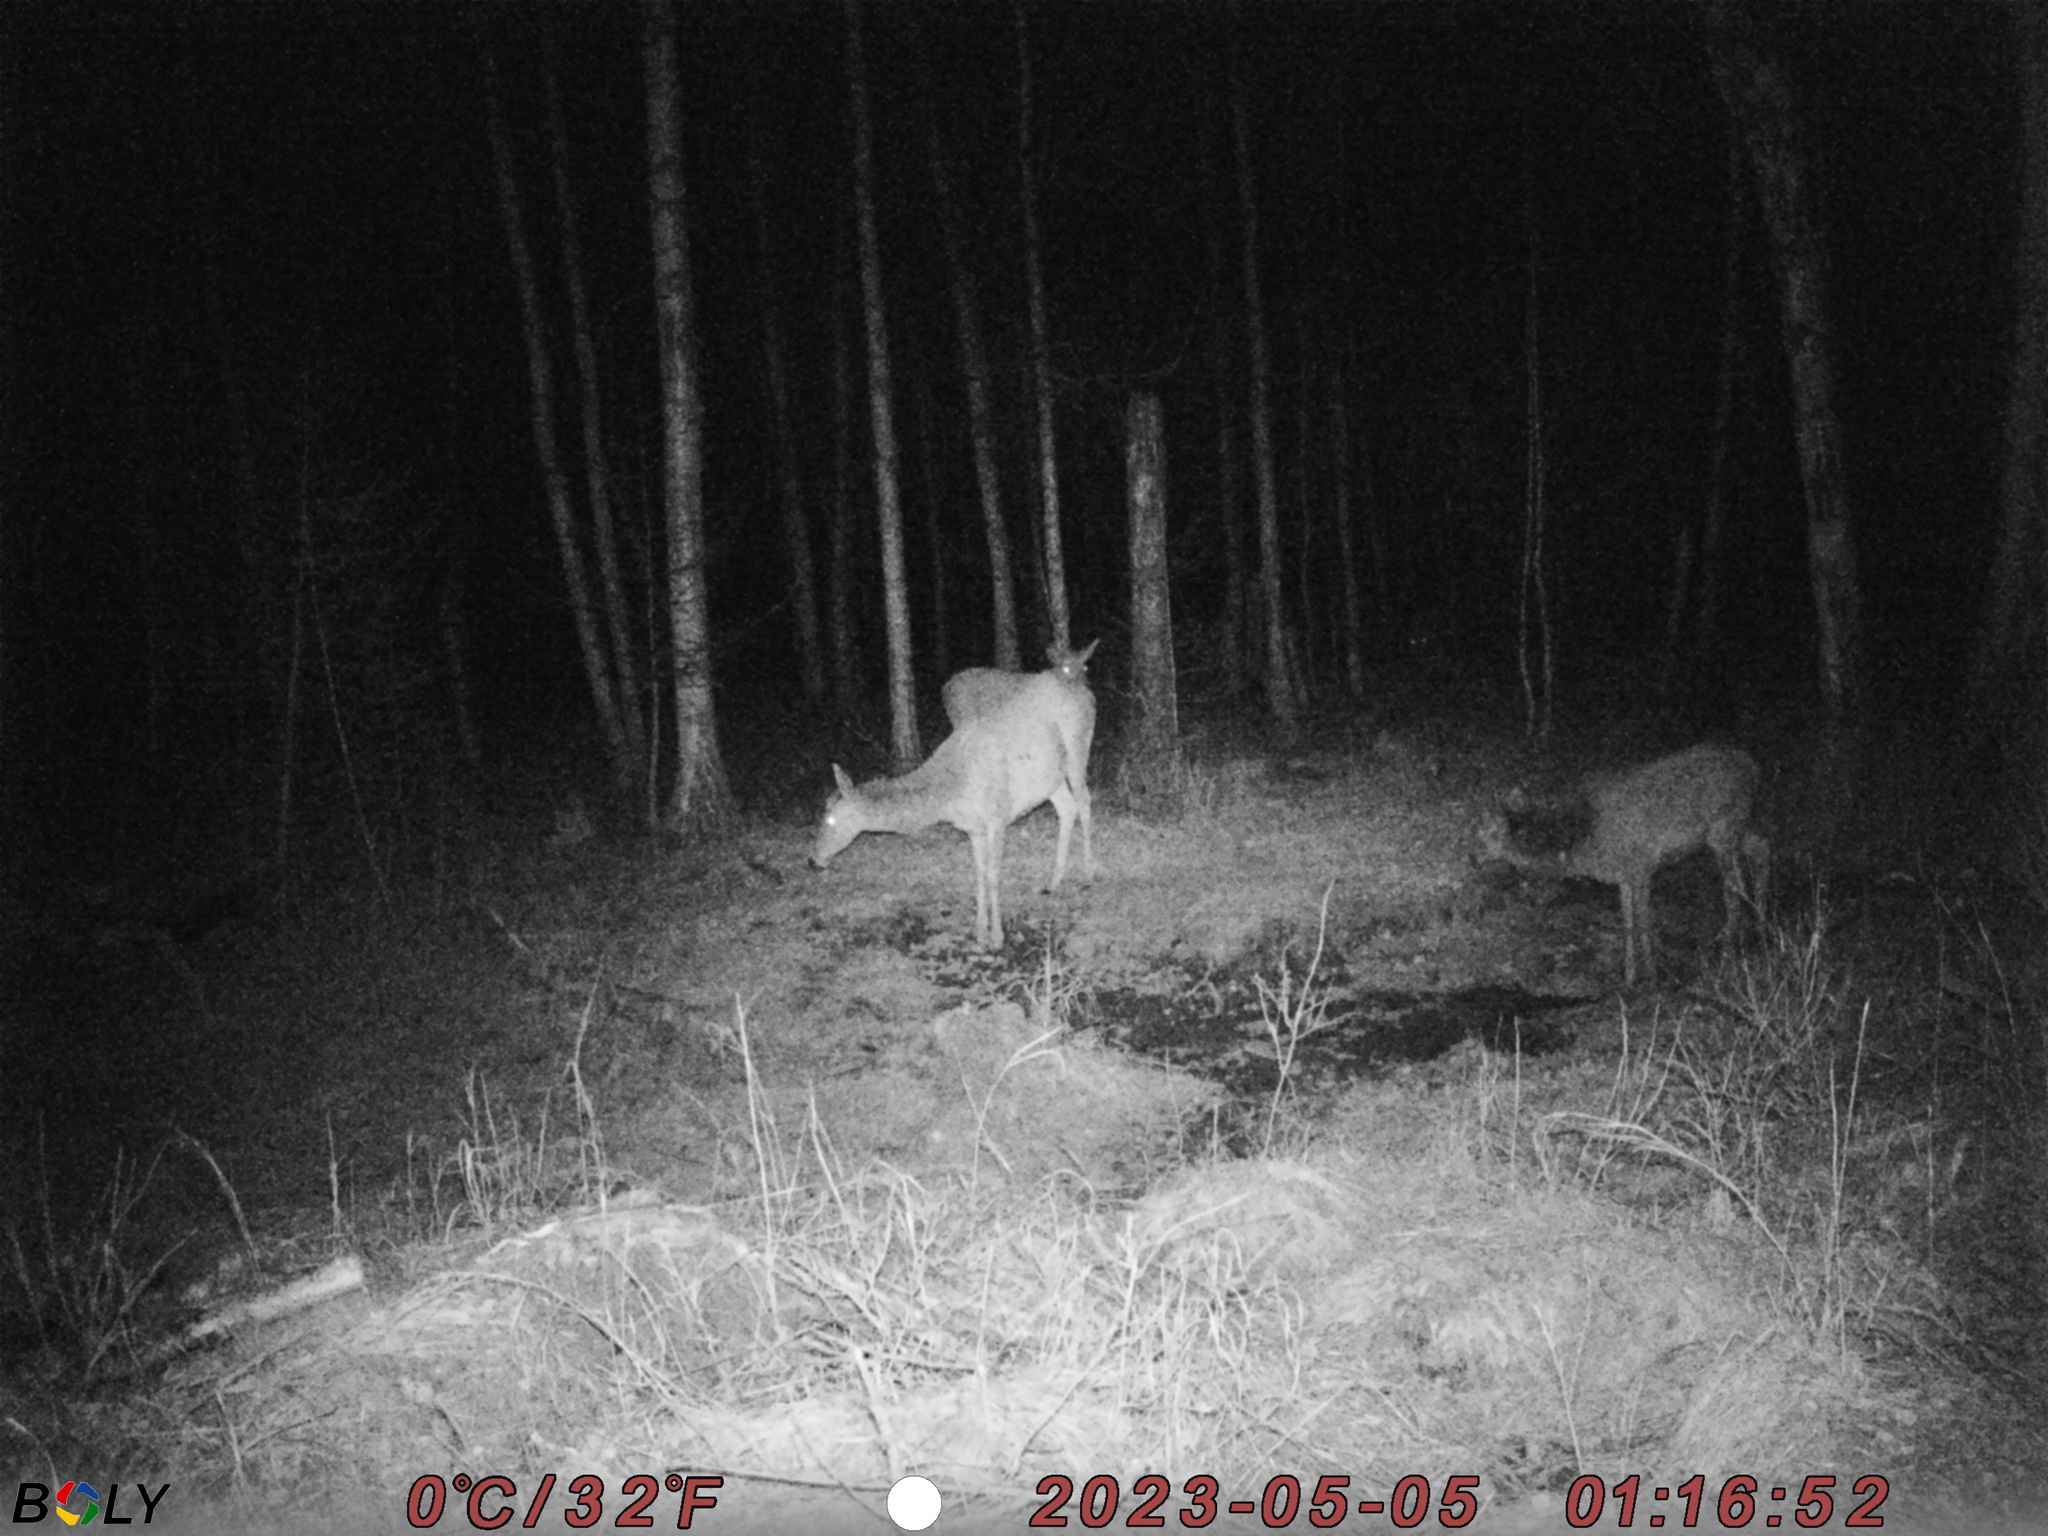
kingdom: Animalia
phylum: Chordata
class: Mammalia
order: Artiodactyla
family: Cervidae
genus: Cervus
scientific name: Cervus elaphus
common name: Red deer
